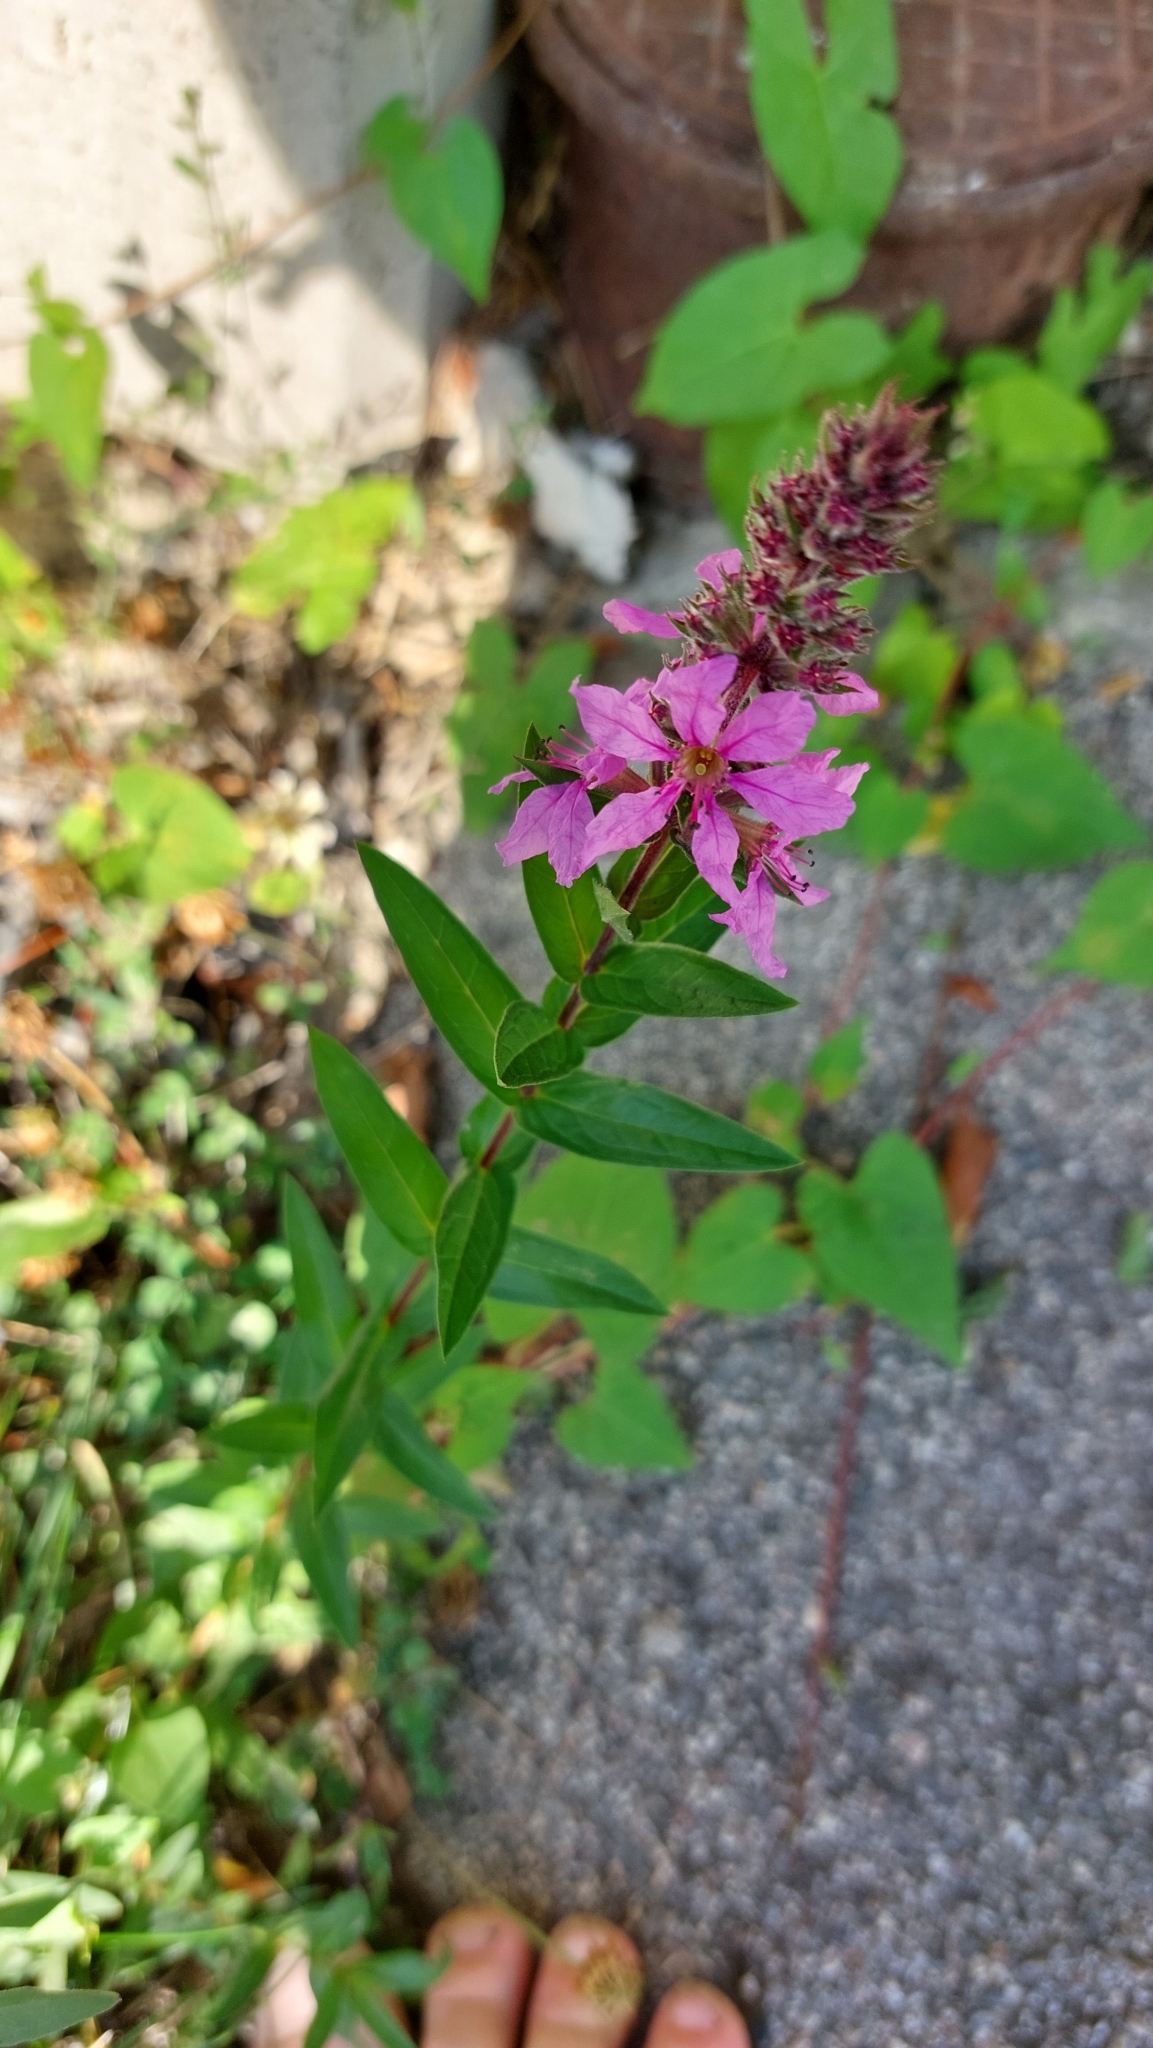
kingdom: Plantae
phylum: Tracheophyta
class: Magnoliopsida
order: Myrtales
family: Lythraceae
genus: Lythrum
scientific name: Lythrum salicaria
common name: Purple loosestrife
